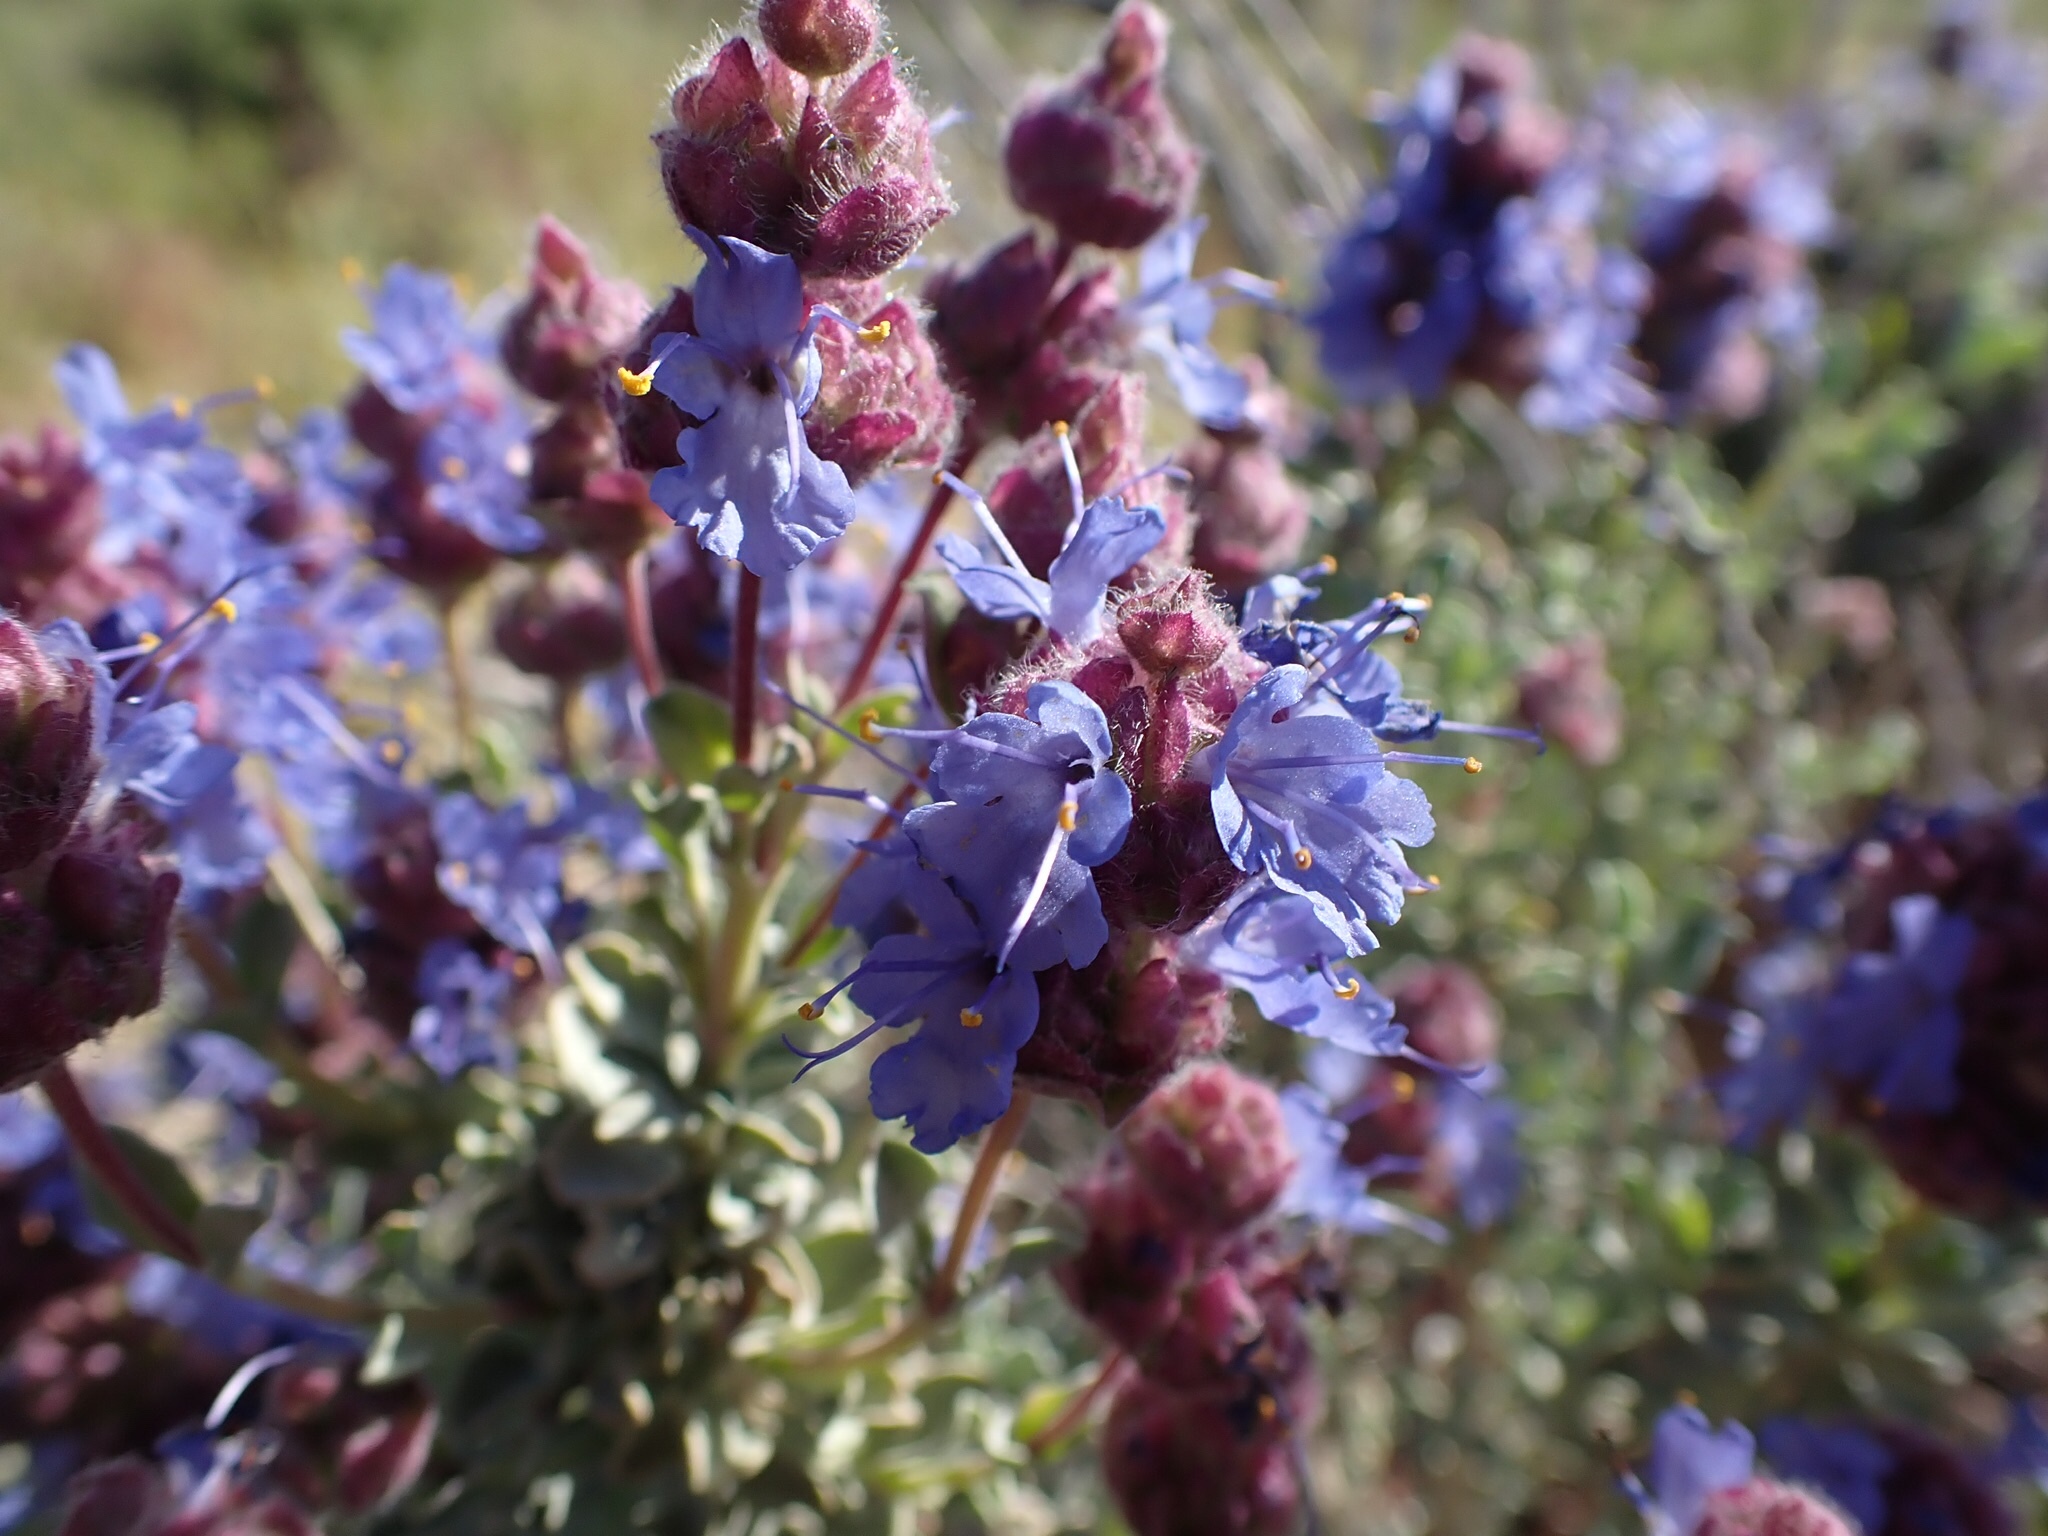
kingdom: Plantae
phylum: Tracheophyta
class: Magnoliopsida
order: Lamiales
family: Lamiaceae
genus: Salvia
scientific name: Salvia dorrii
